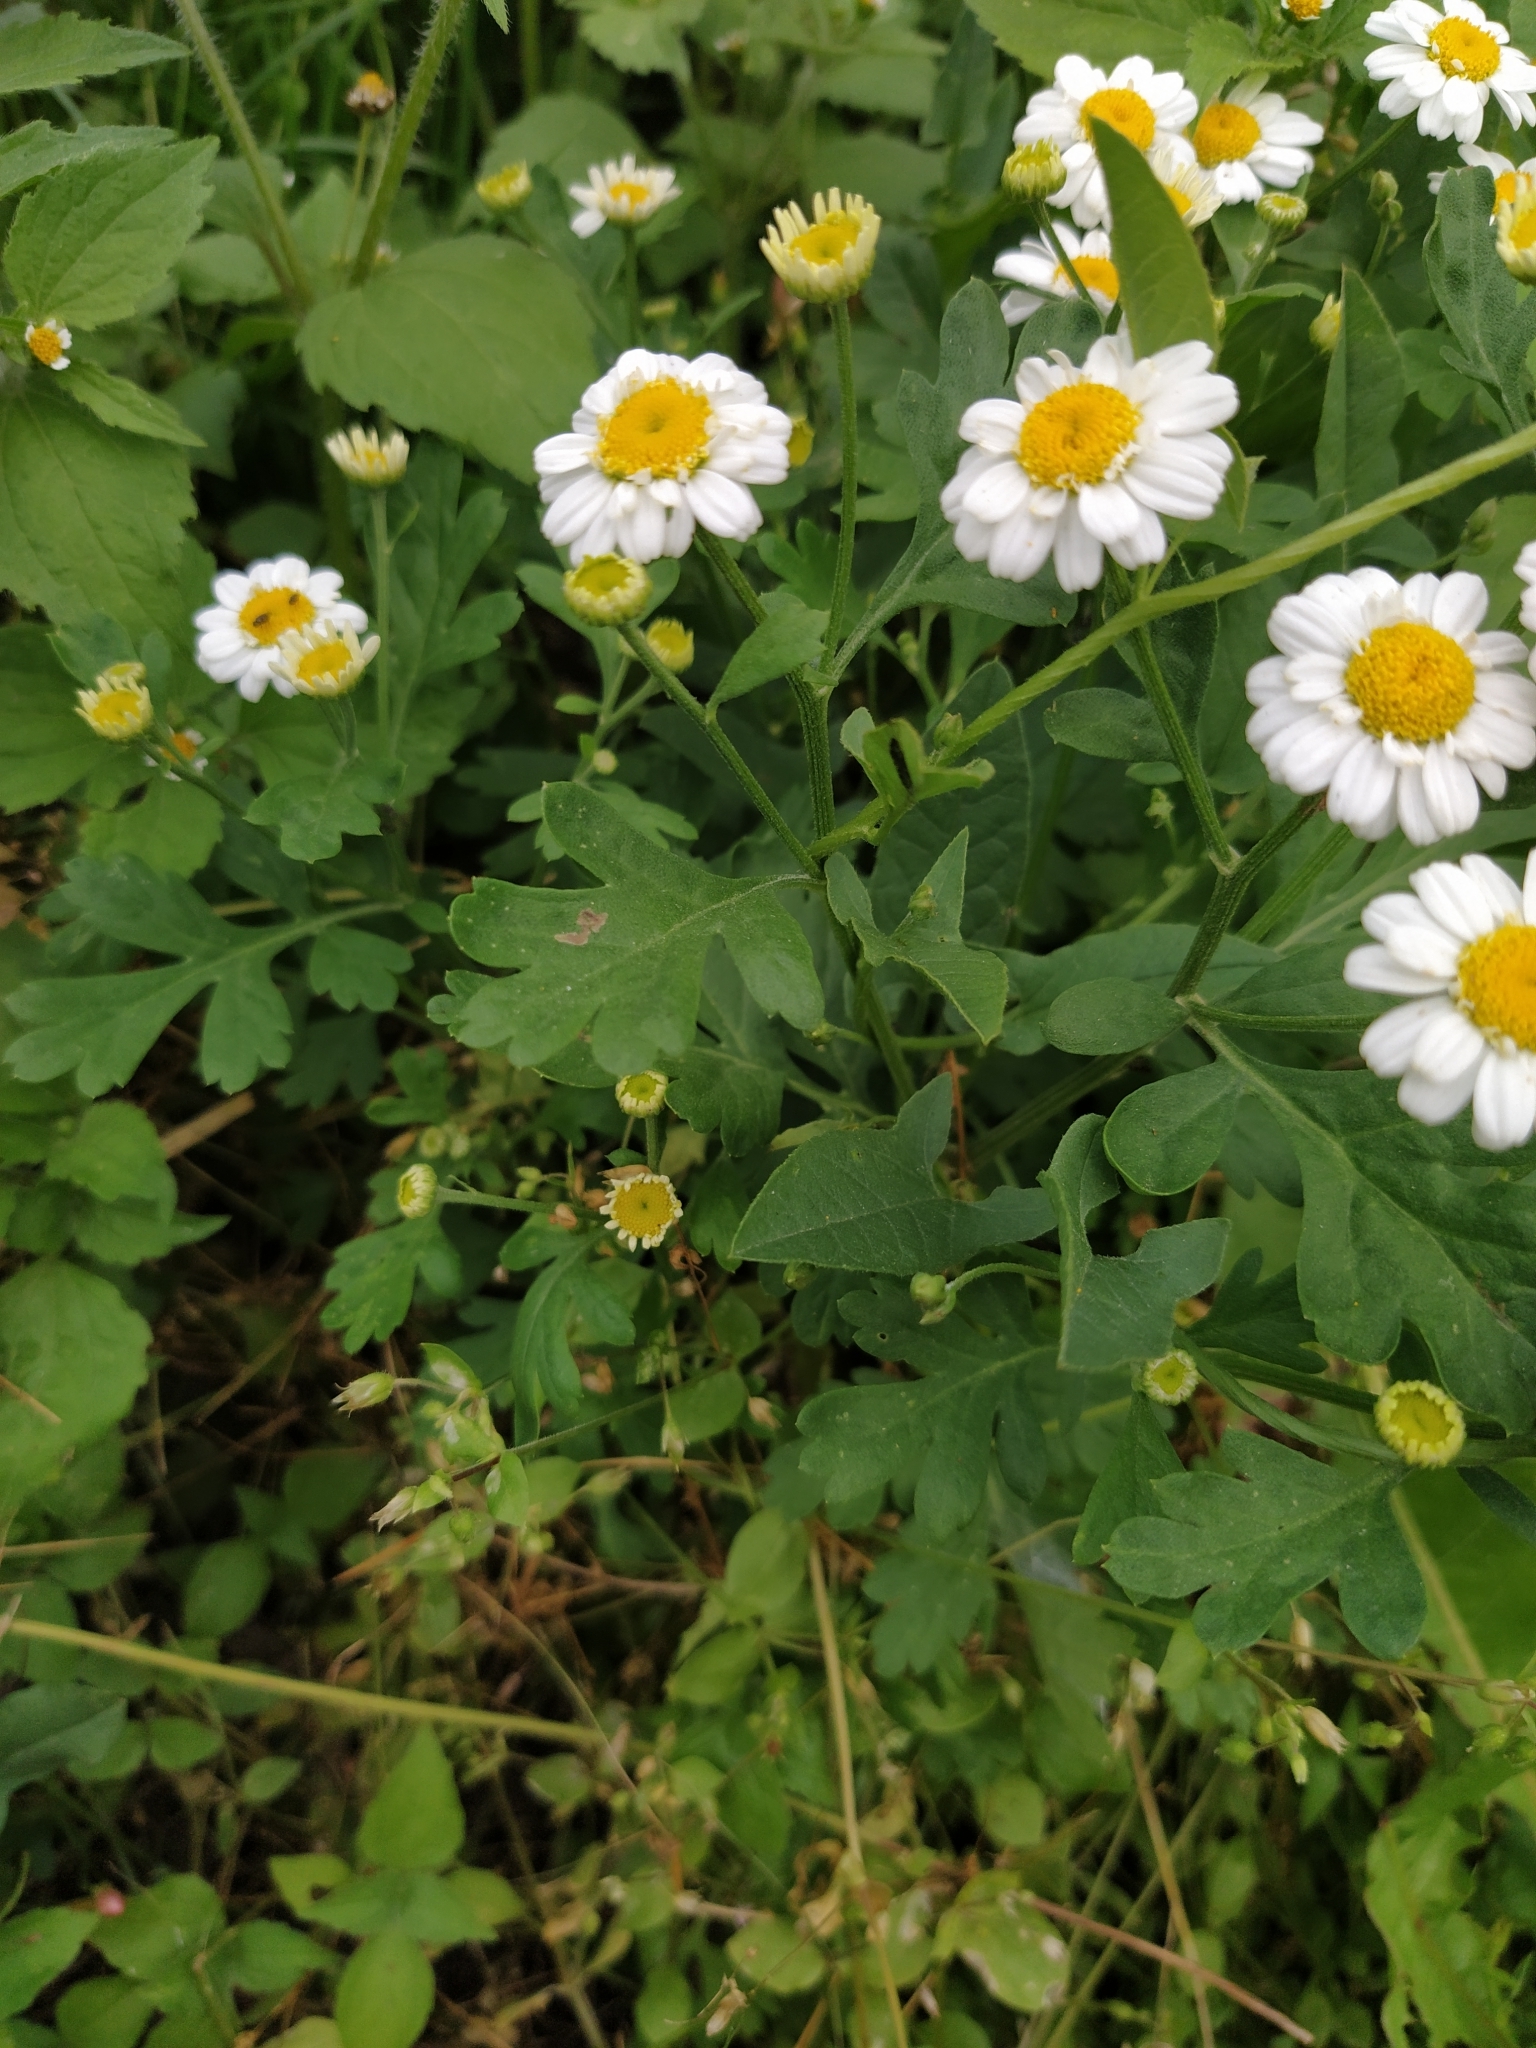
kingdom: Plantae
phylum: Tracheophyta
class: Magnoliopsida
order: Asterales
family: Asteraceae
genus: Tanacetum
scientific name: Tanacetum parthenium
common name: Feverfew
